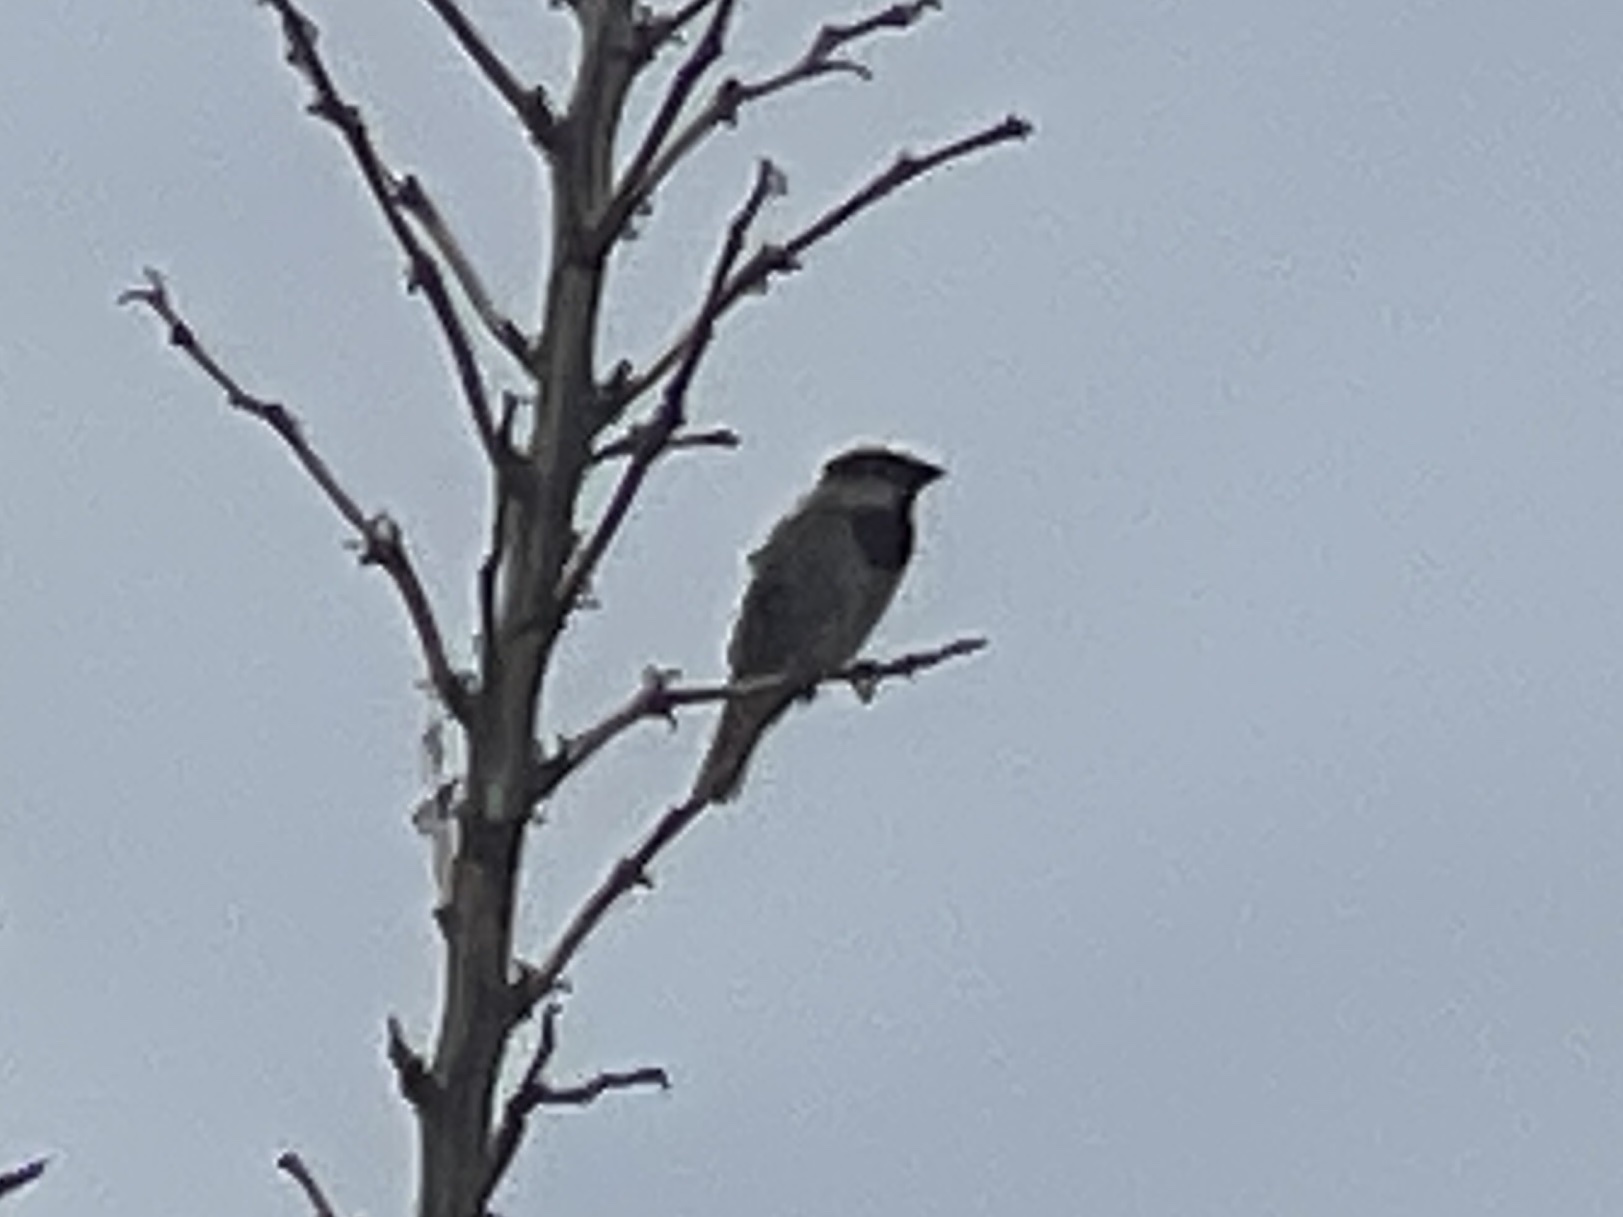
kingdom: Animalia
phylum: Chordata
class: Aves
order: Passeriformes
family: Passeridae
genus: Passer
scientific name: Passer domesticus
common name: House sparrow
